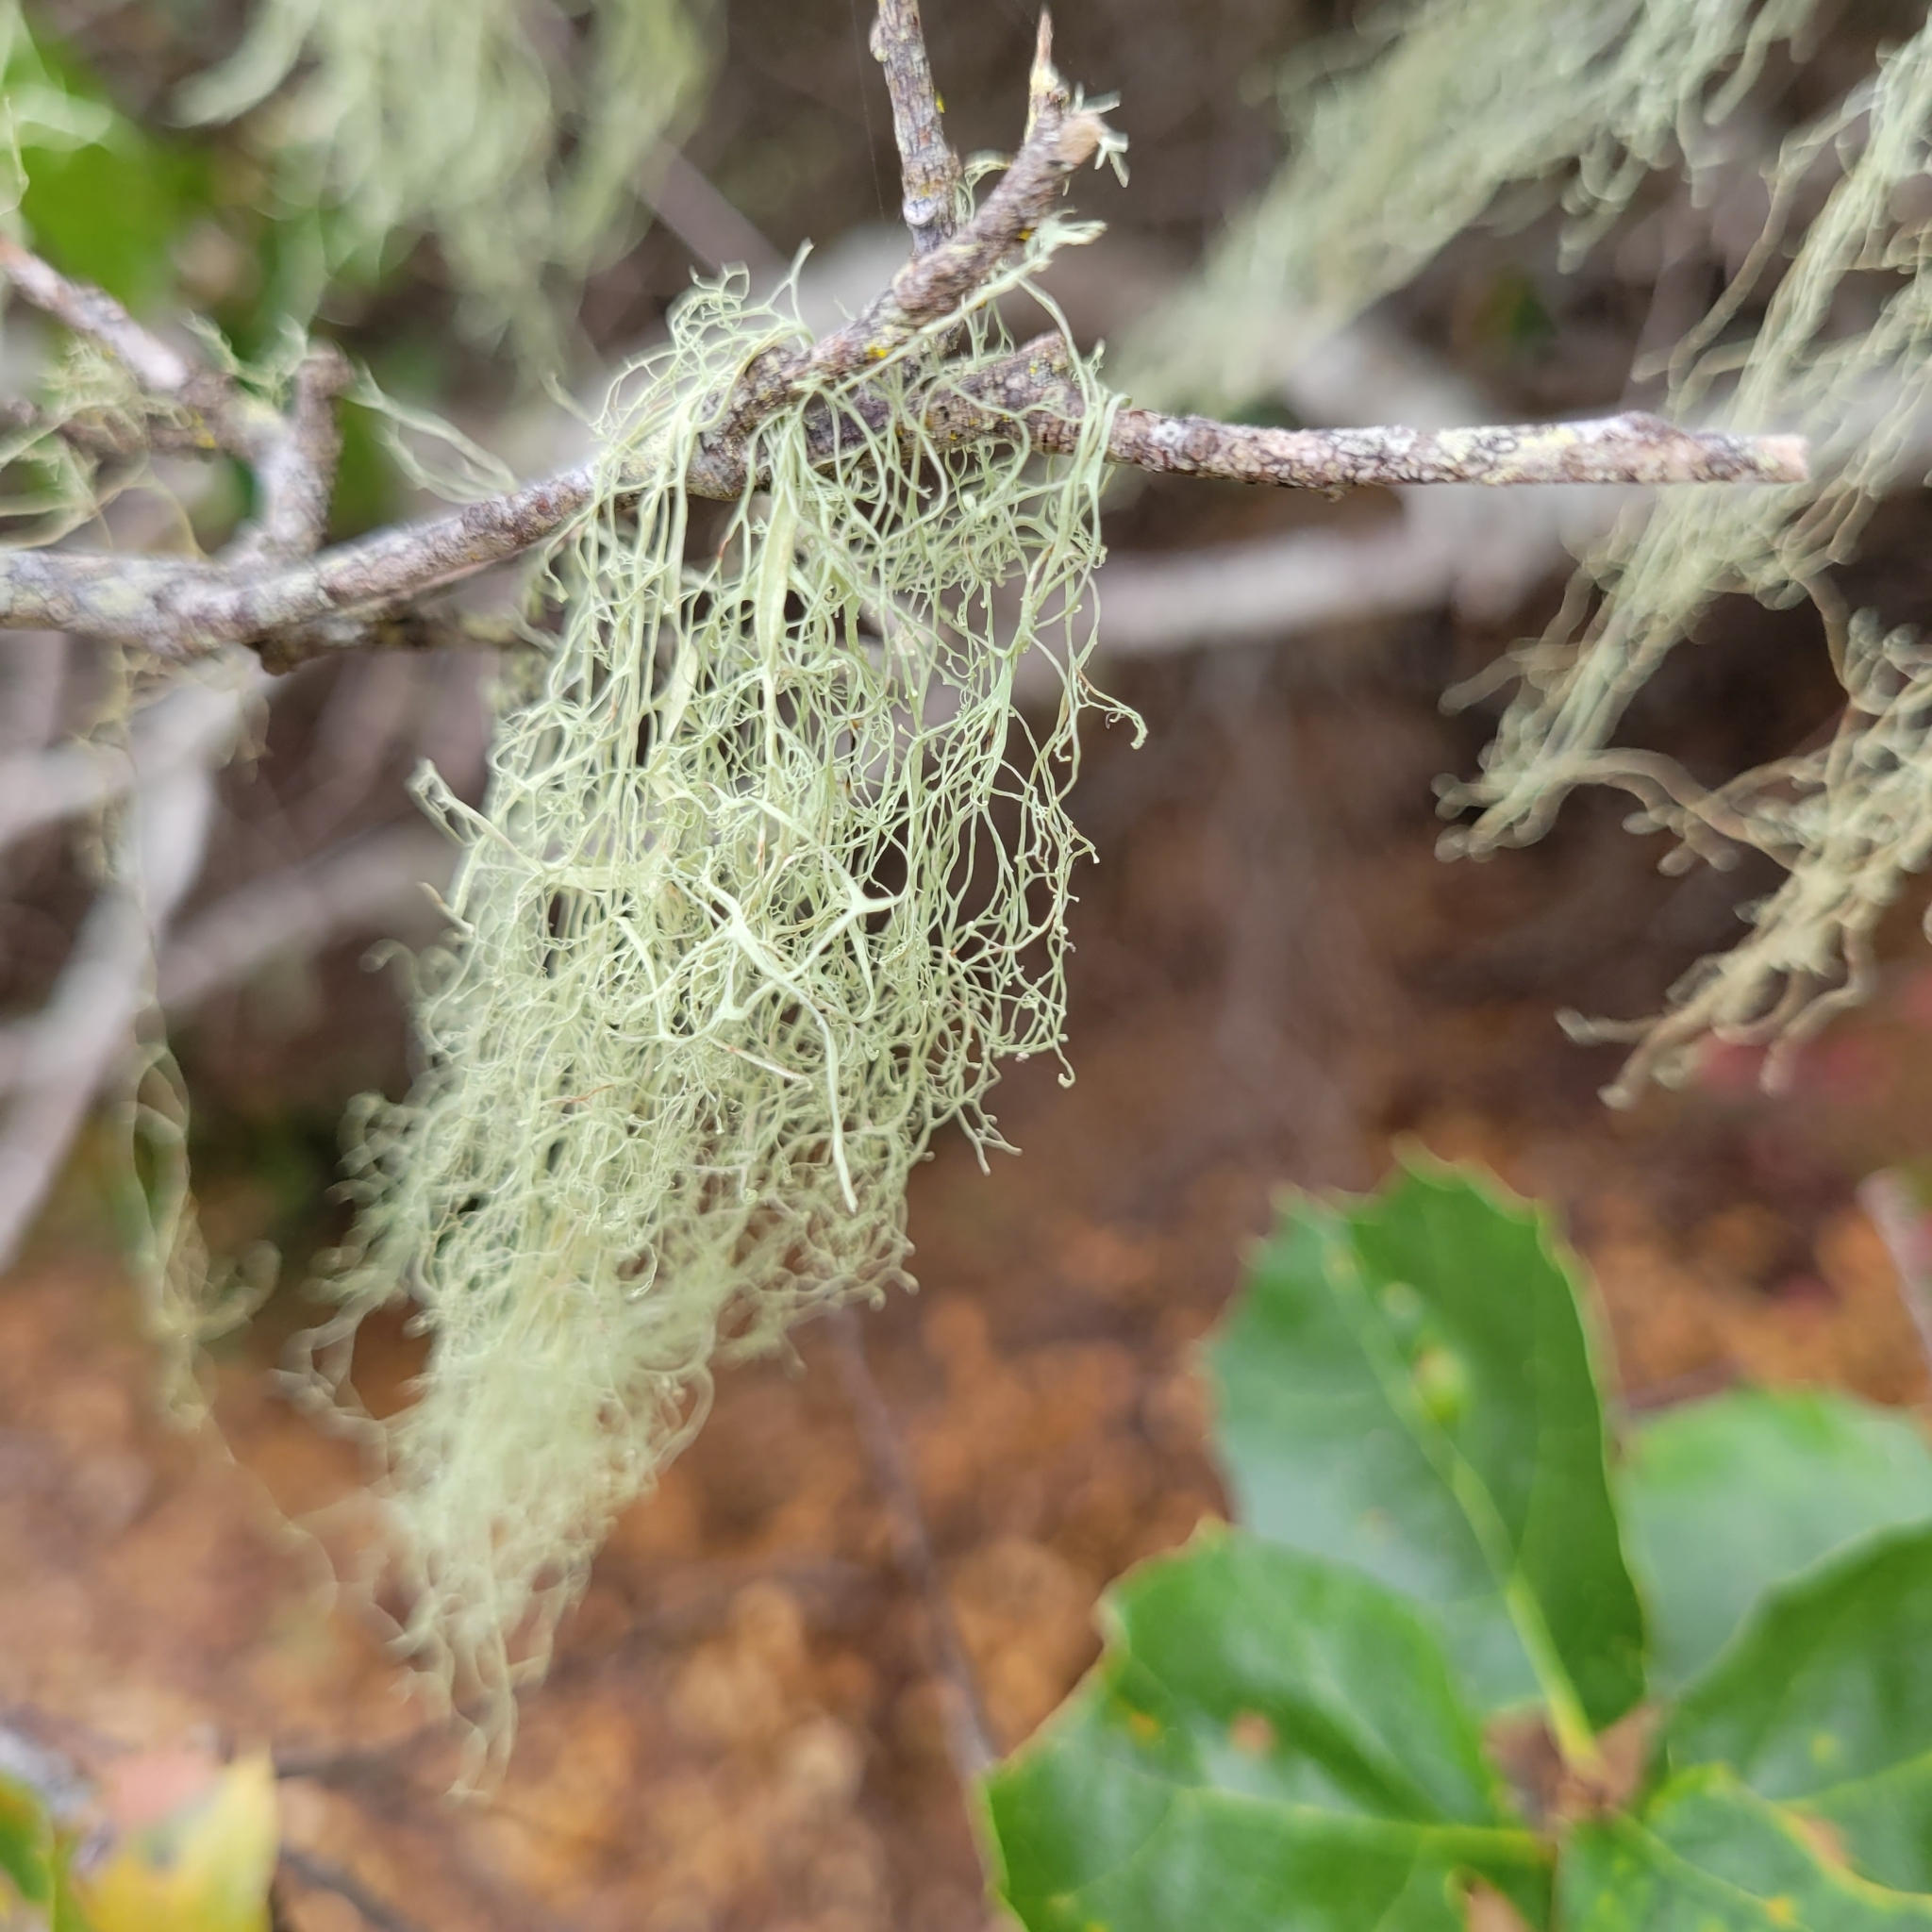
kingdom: Fungi
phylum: Ascomycota
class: Lecanoromycetes
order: Lecanorales
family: Ramalinaceae
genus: Ramalina
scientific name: Ramalina menziesii
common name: Lace lichen
